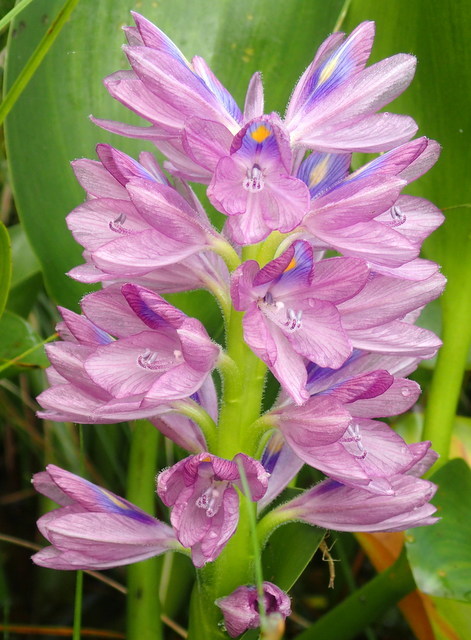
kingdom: Plantae
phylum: Tracheophyta
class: Liliopsida
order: Commelinales
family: Pontederiaceae
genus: Pontederia
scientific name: Pontederia crassipes
